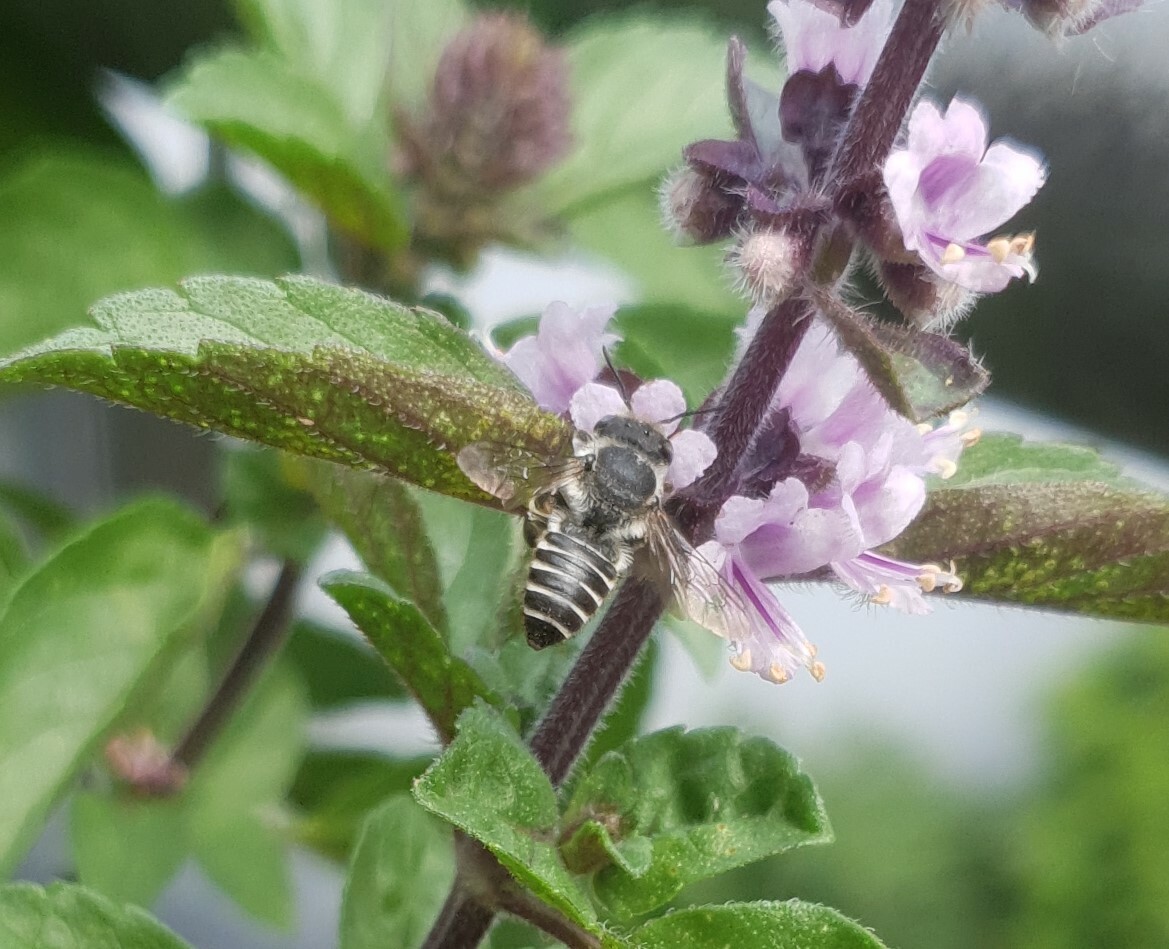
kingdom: Animalia
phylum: Arthropoda
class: Insecta
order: Hymenoptera
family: Megachilidae
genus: Megachile
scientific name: Megachile rotundata
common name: Alfalfa leafcutting bee
